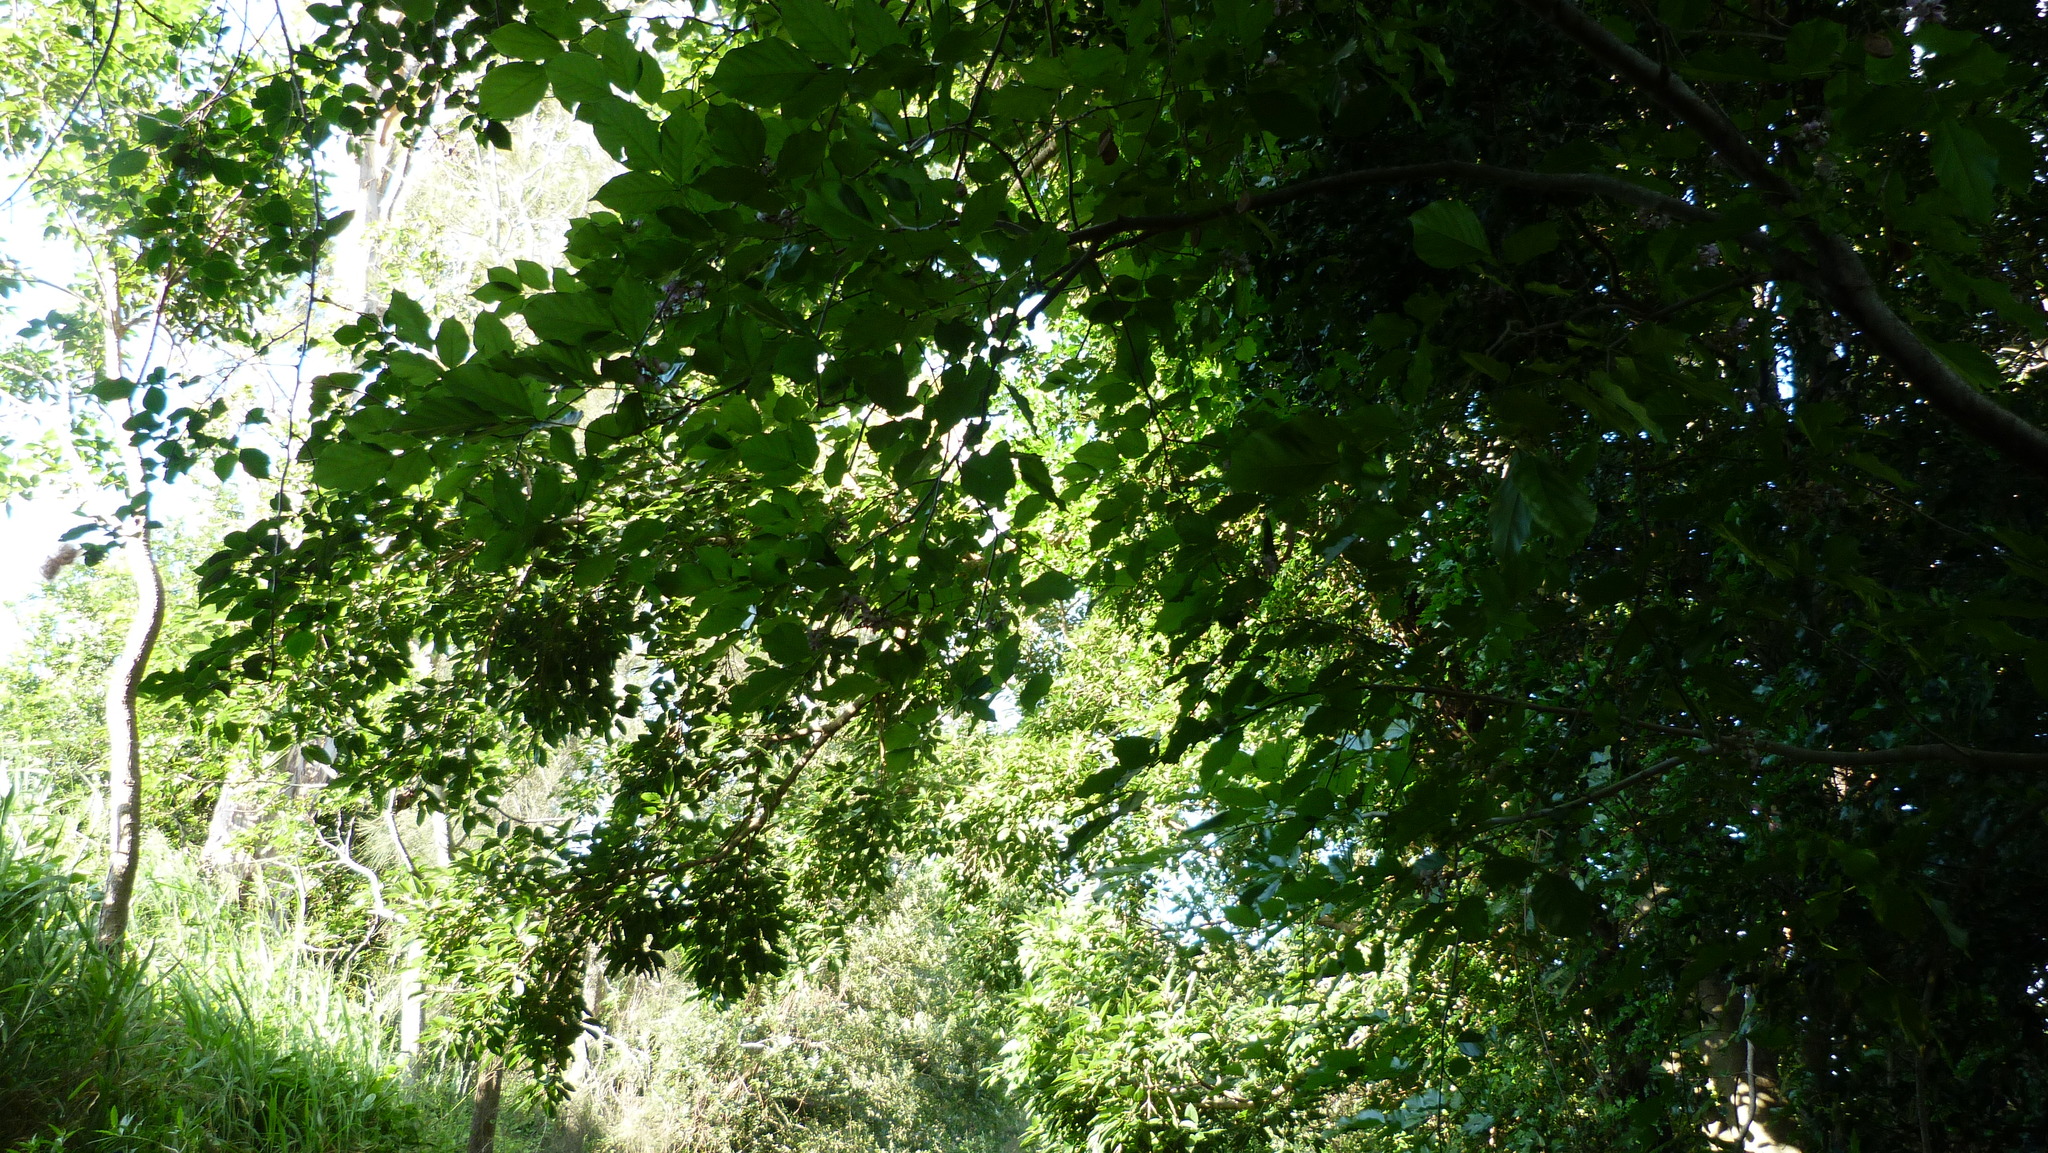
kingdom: Plantae
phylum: Tracheophyta
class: Magnoliopsida
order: Fabales
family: Fabaceae
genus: Pongamia
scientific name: Pongamia pinnata
